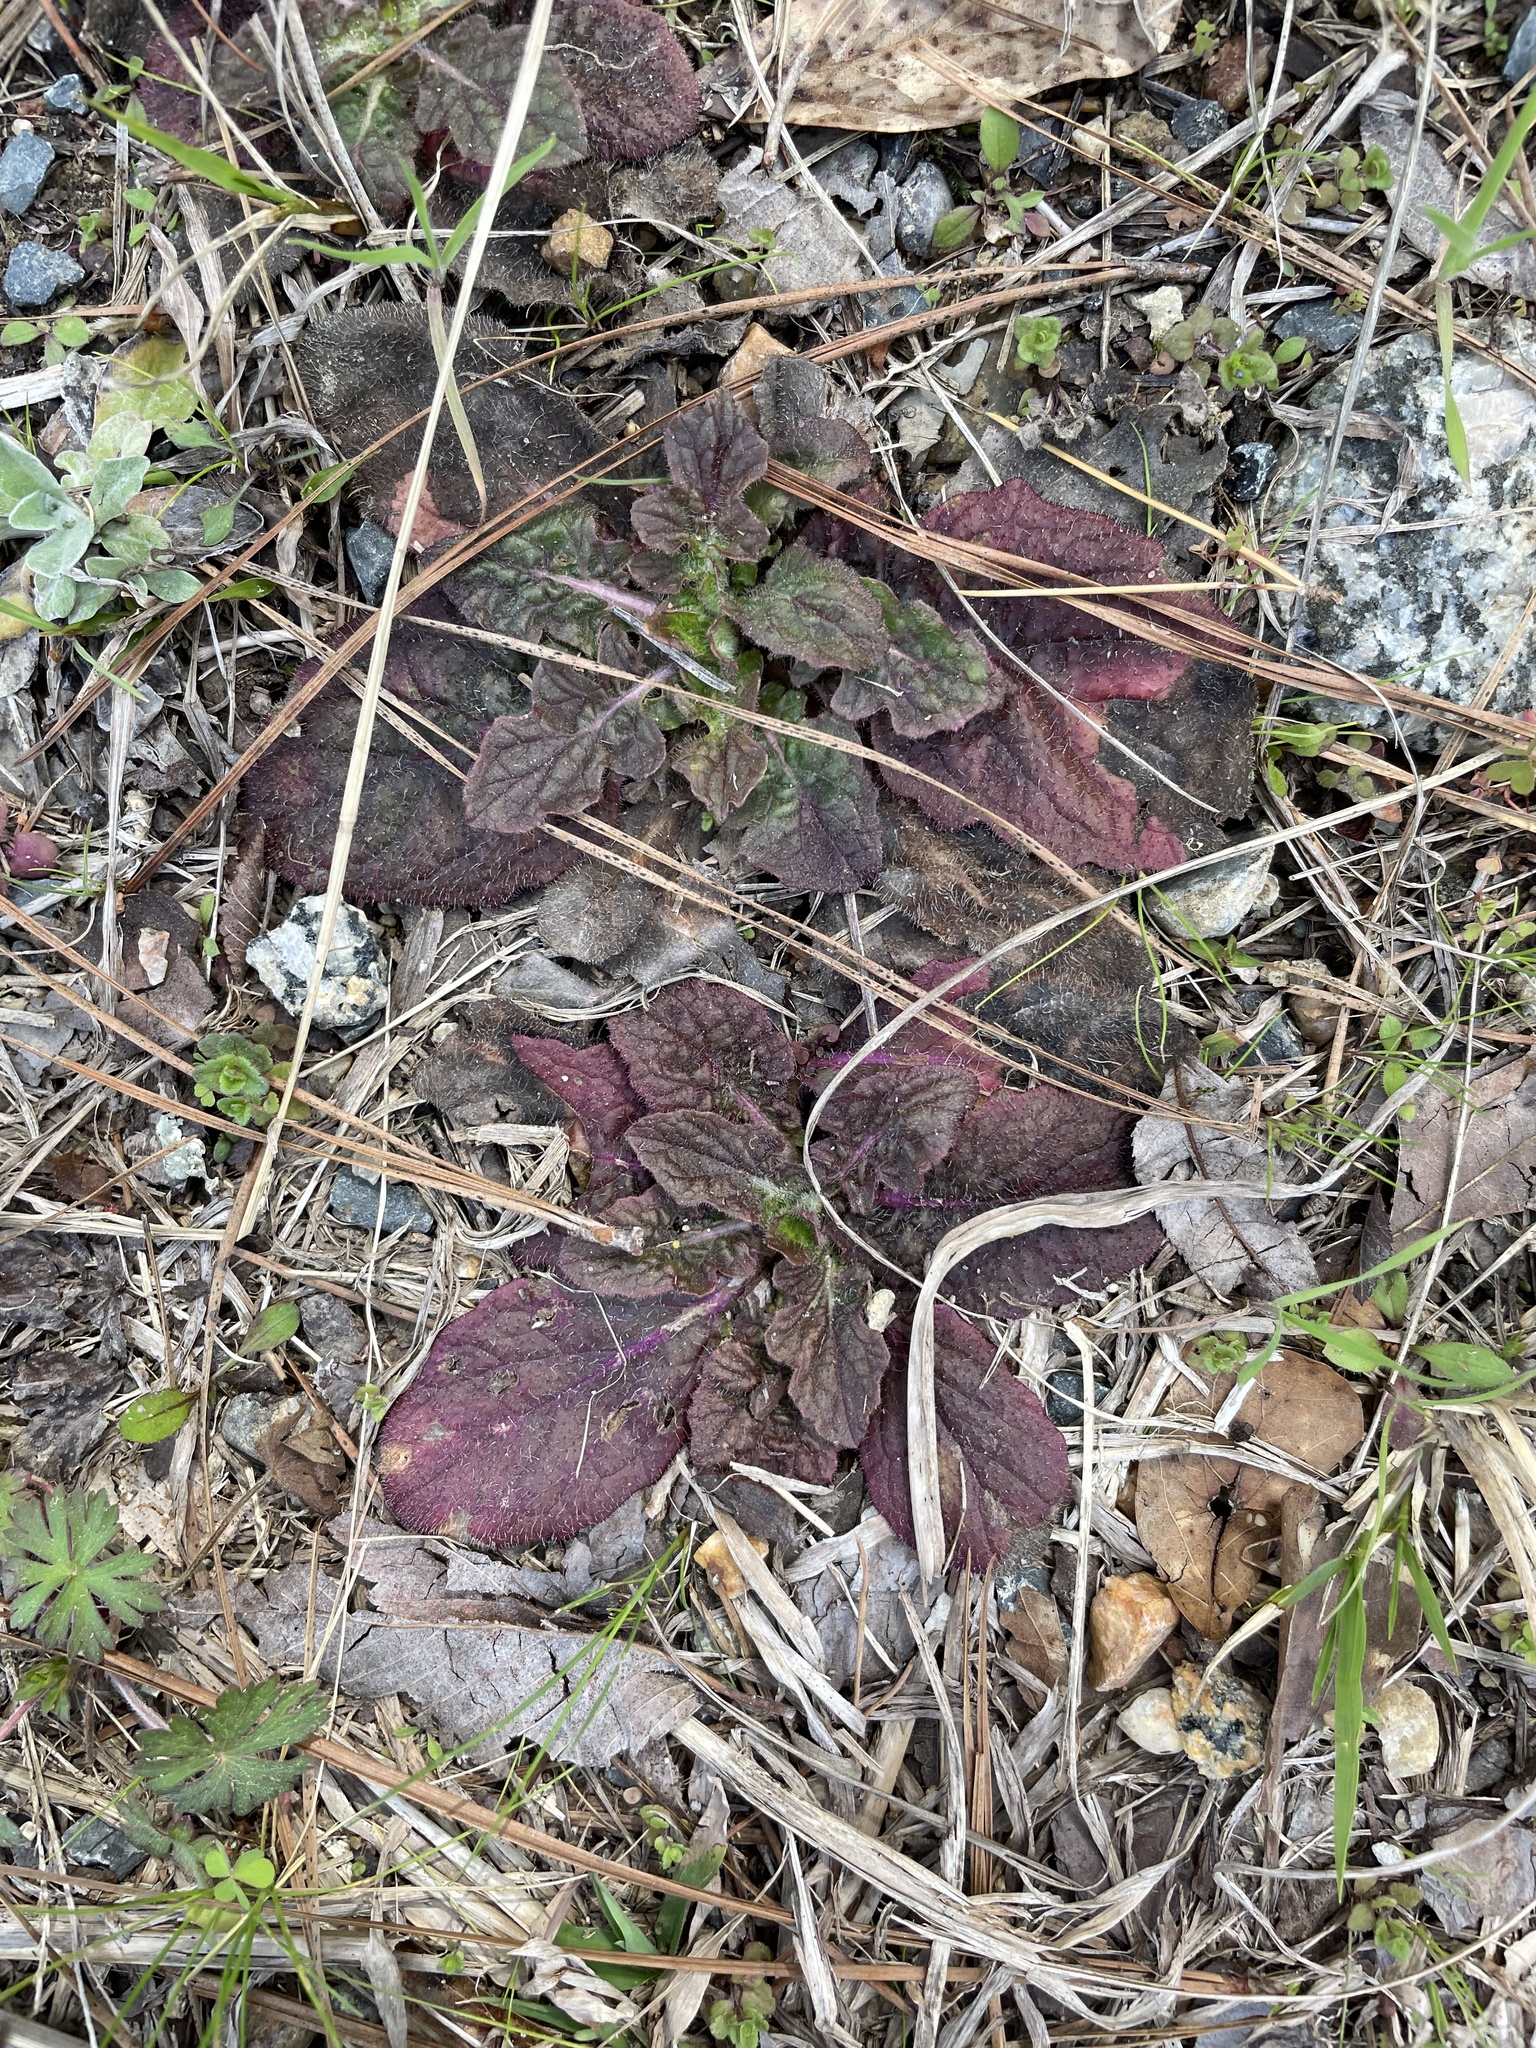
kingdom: Plantae
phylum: Tracheophyta
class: Magnoliopsida
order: Lamiales
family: Lamiaceae
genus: Salvia
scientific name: Salvia lyrata
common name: Cancerweed
